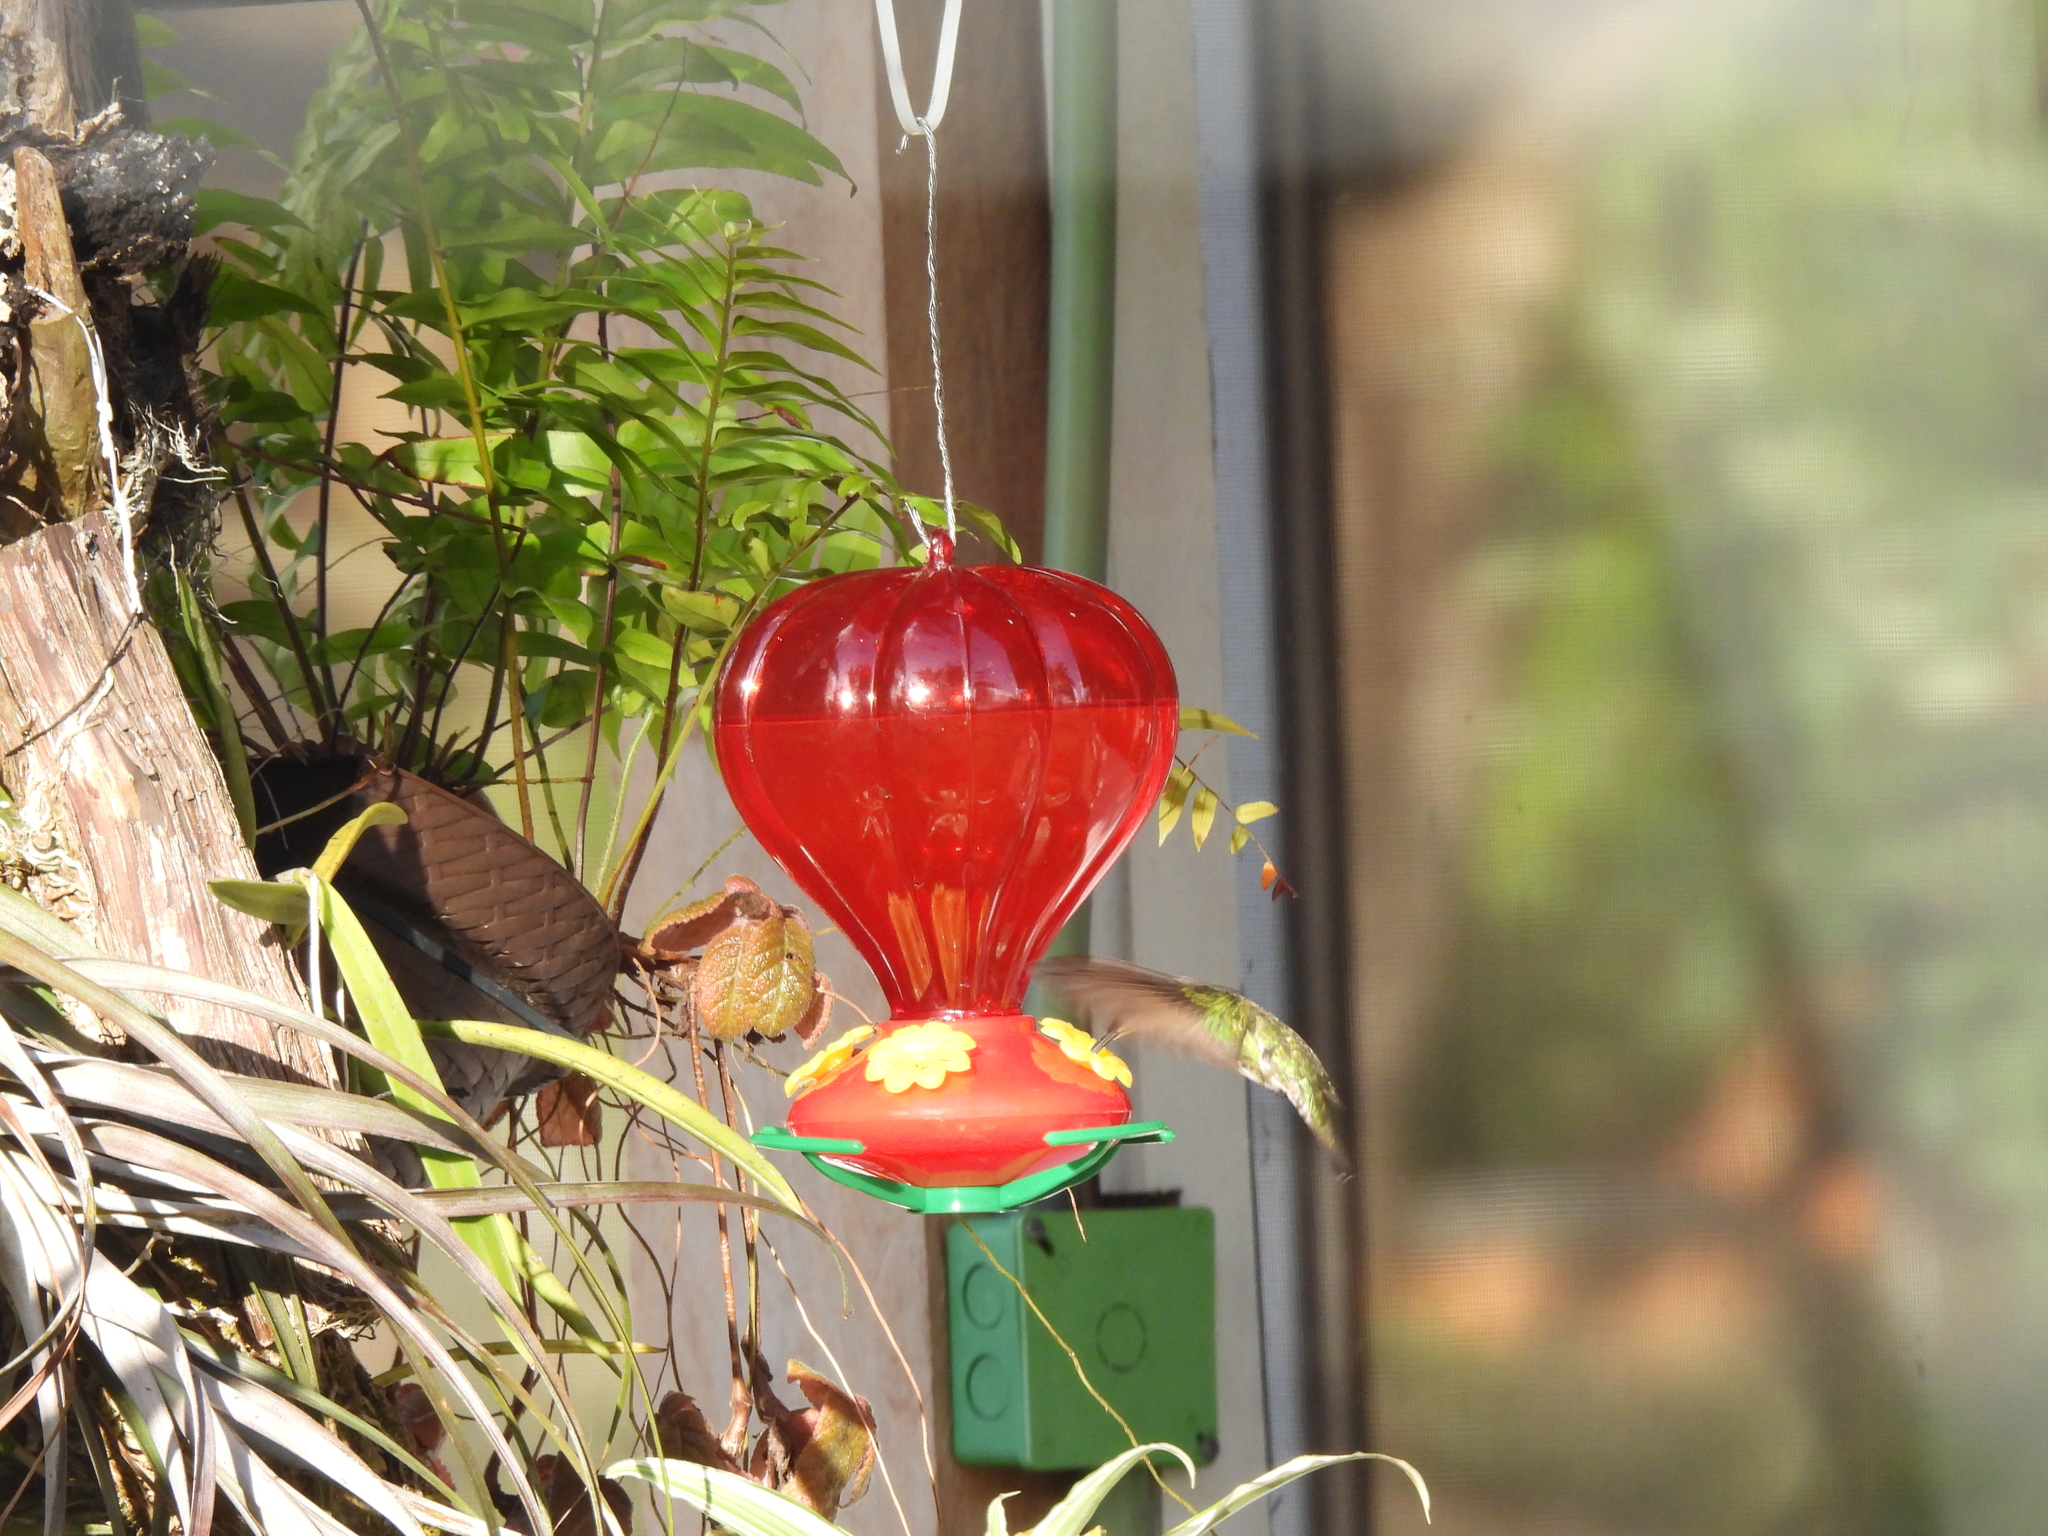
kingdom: Animalia
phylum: Chordata
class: Aves
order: Apodiformes
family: Trochilidae
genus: Anthracothorax
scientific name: Anthracothorax prevostii
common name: Green-breasted mango
